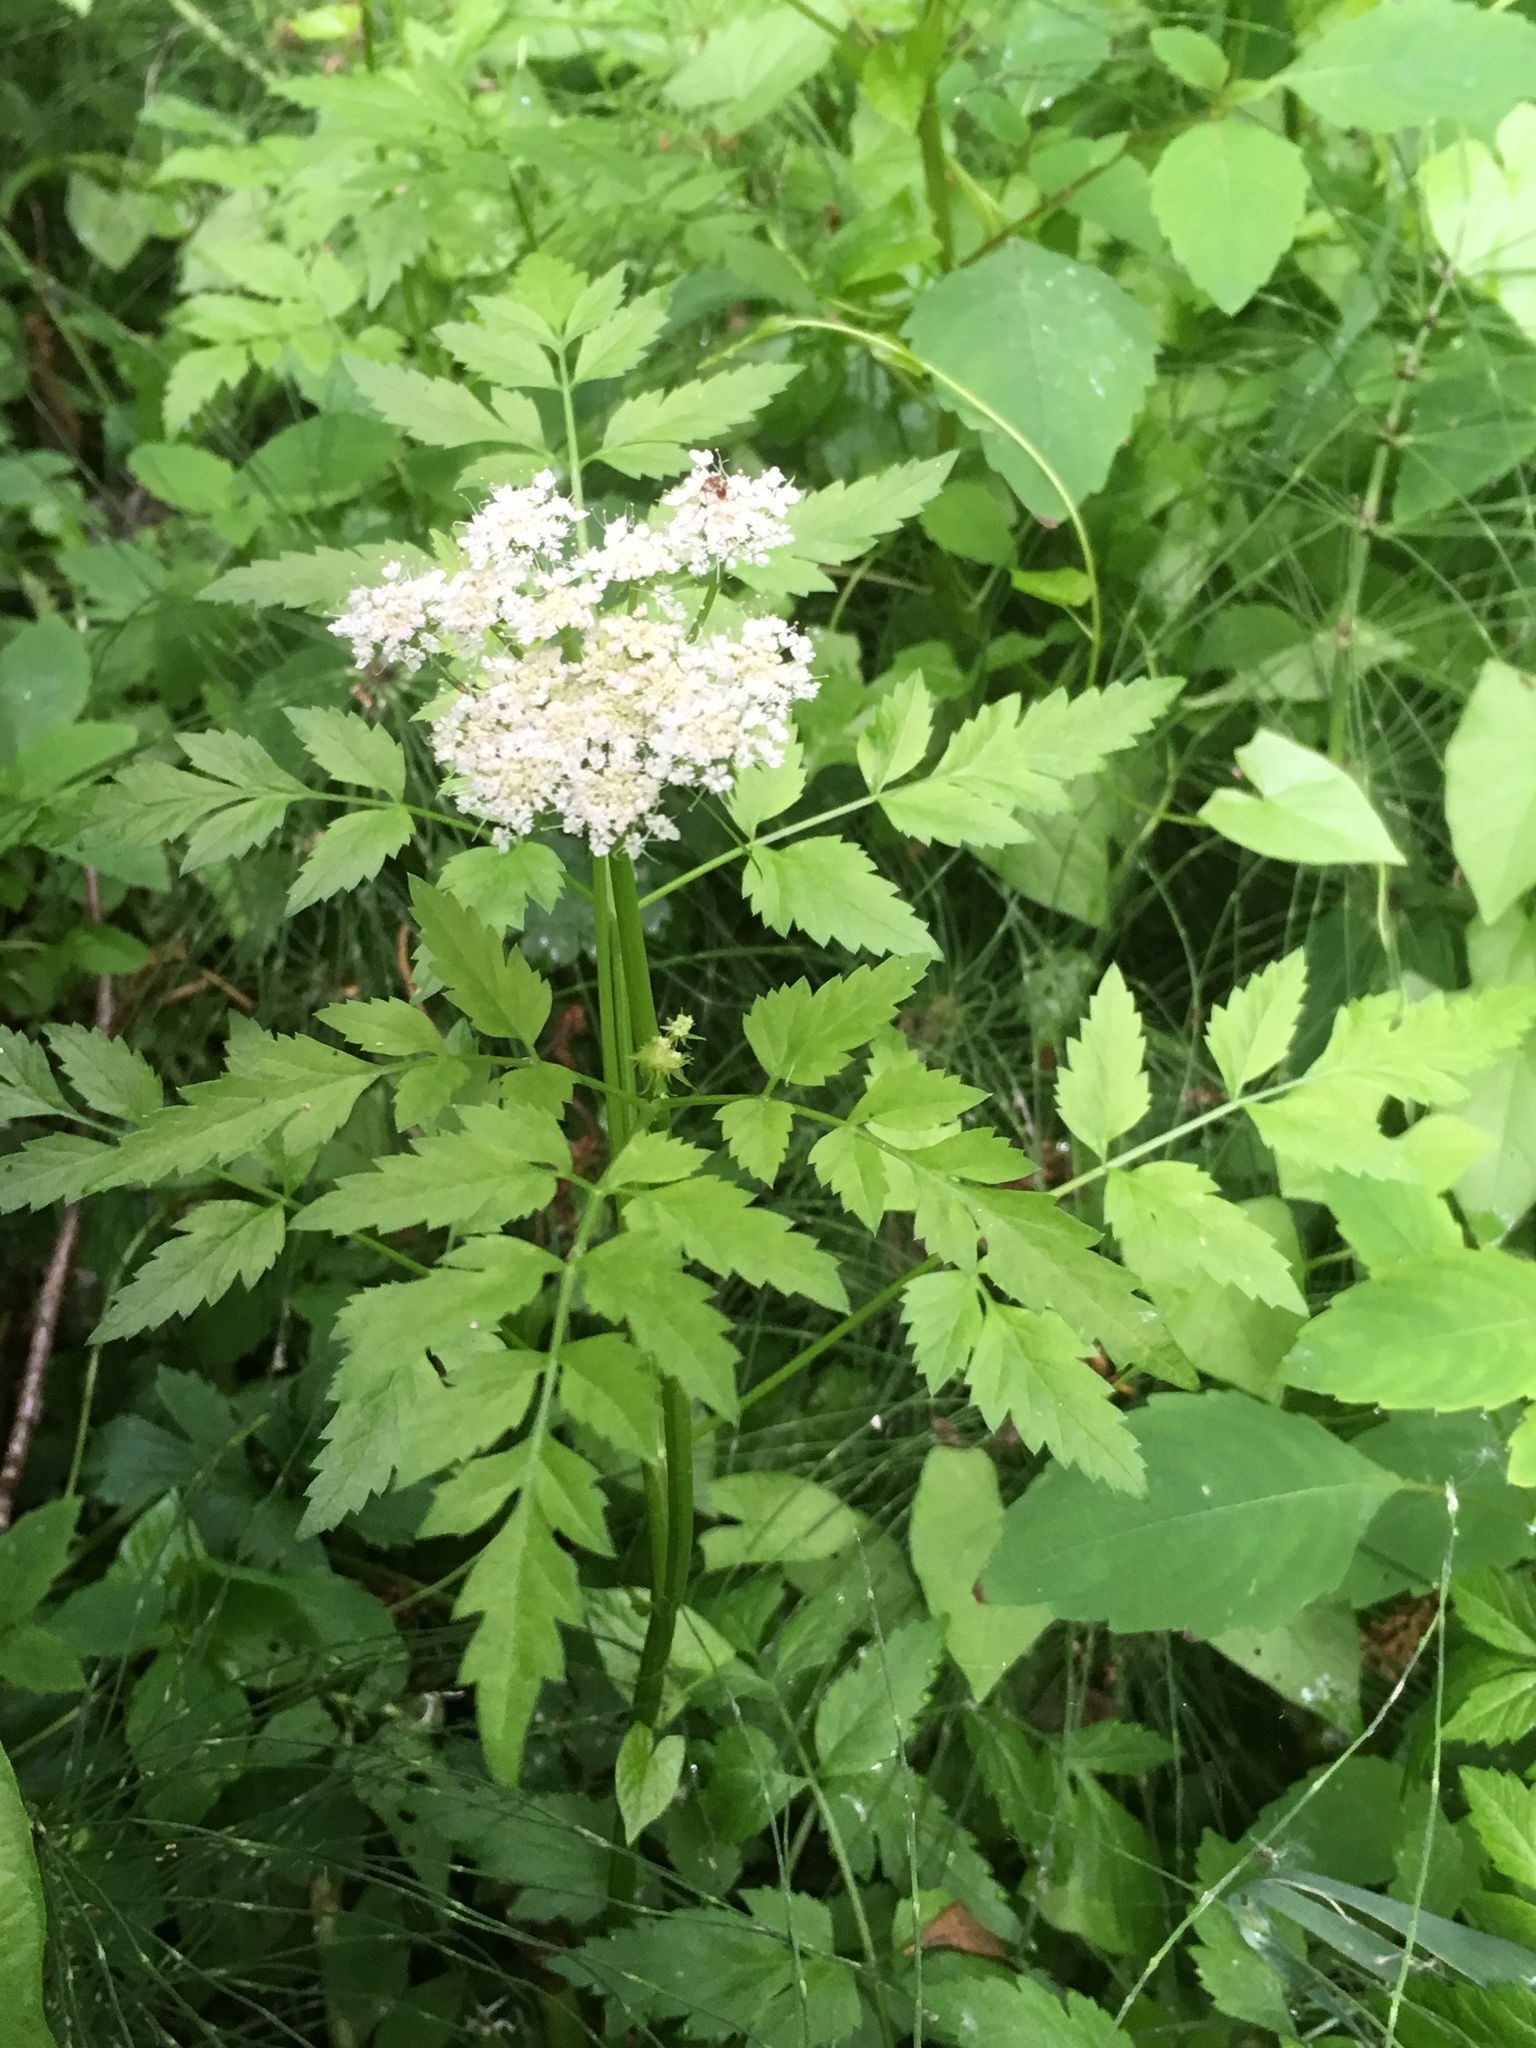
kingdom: Plantae
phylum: Tracheophyta
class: Magnoliopsida
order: Apiales
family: Apiaceae
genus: Oenanthe
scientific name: Oenanthe sarmentosa
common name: American water-parsley
